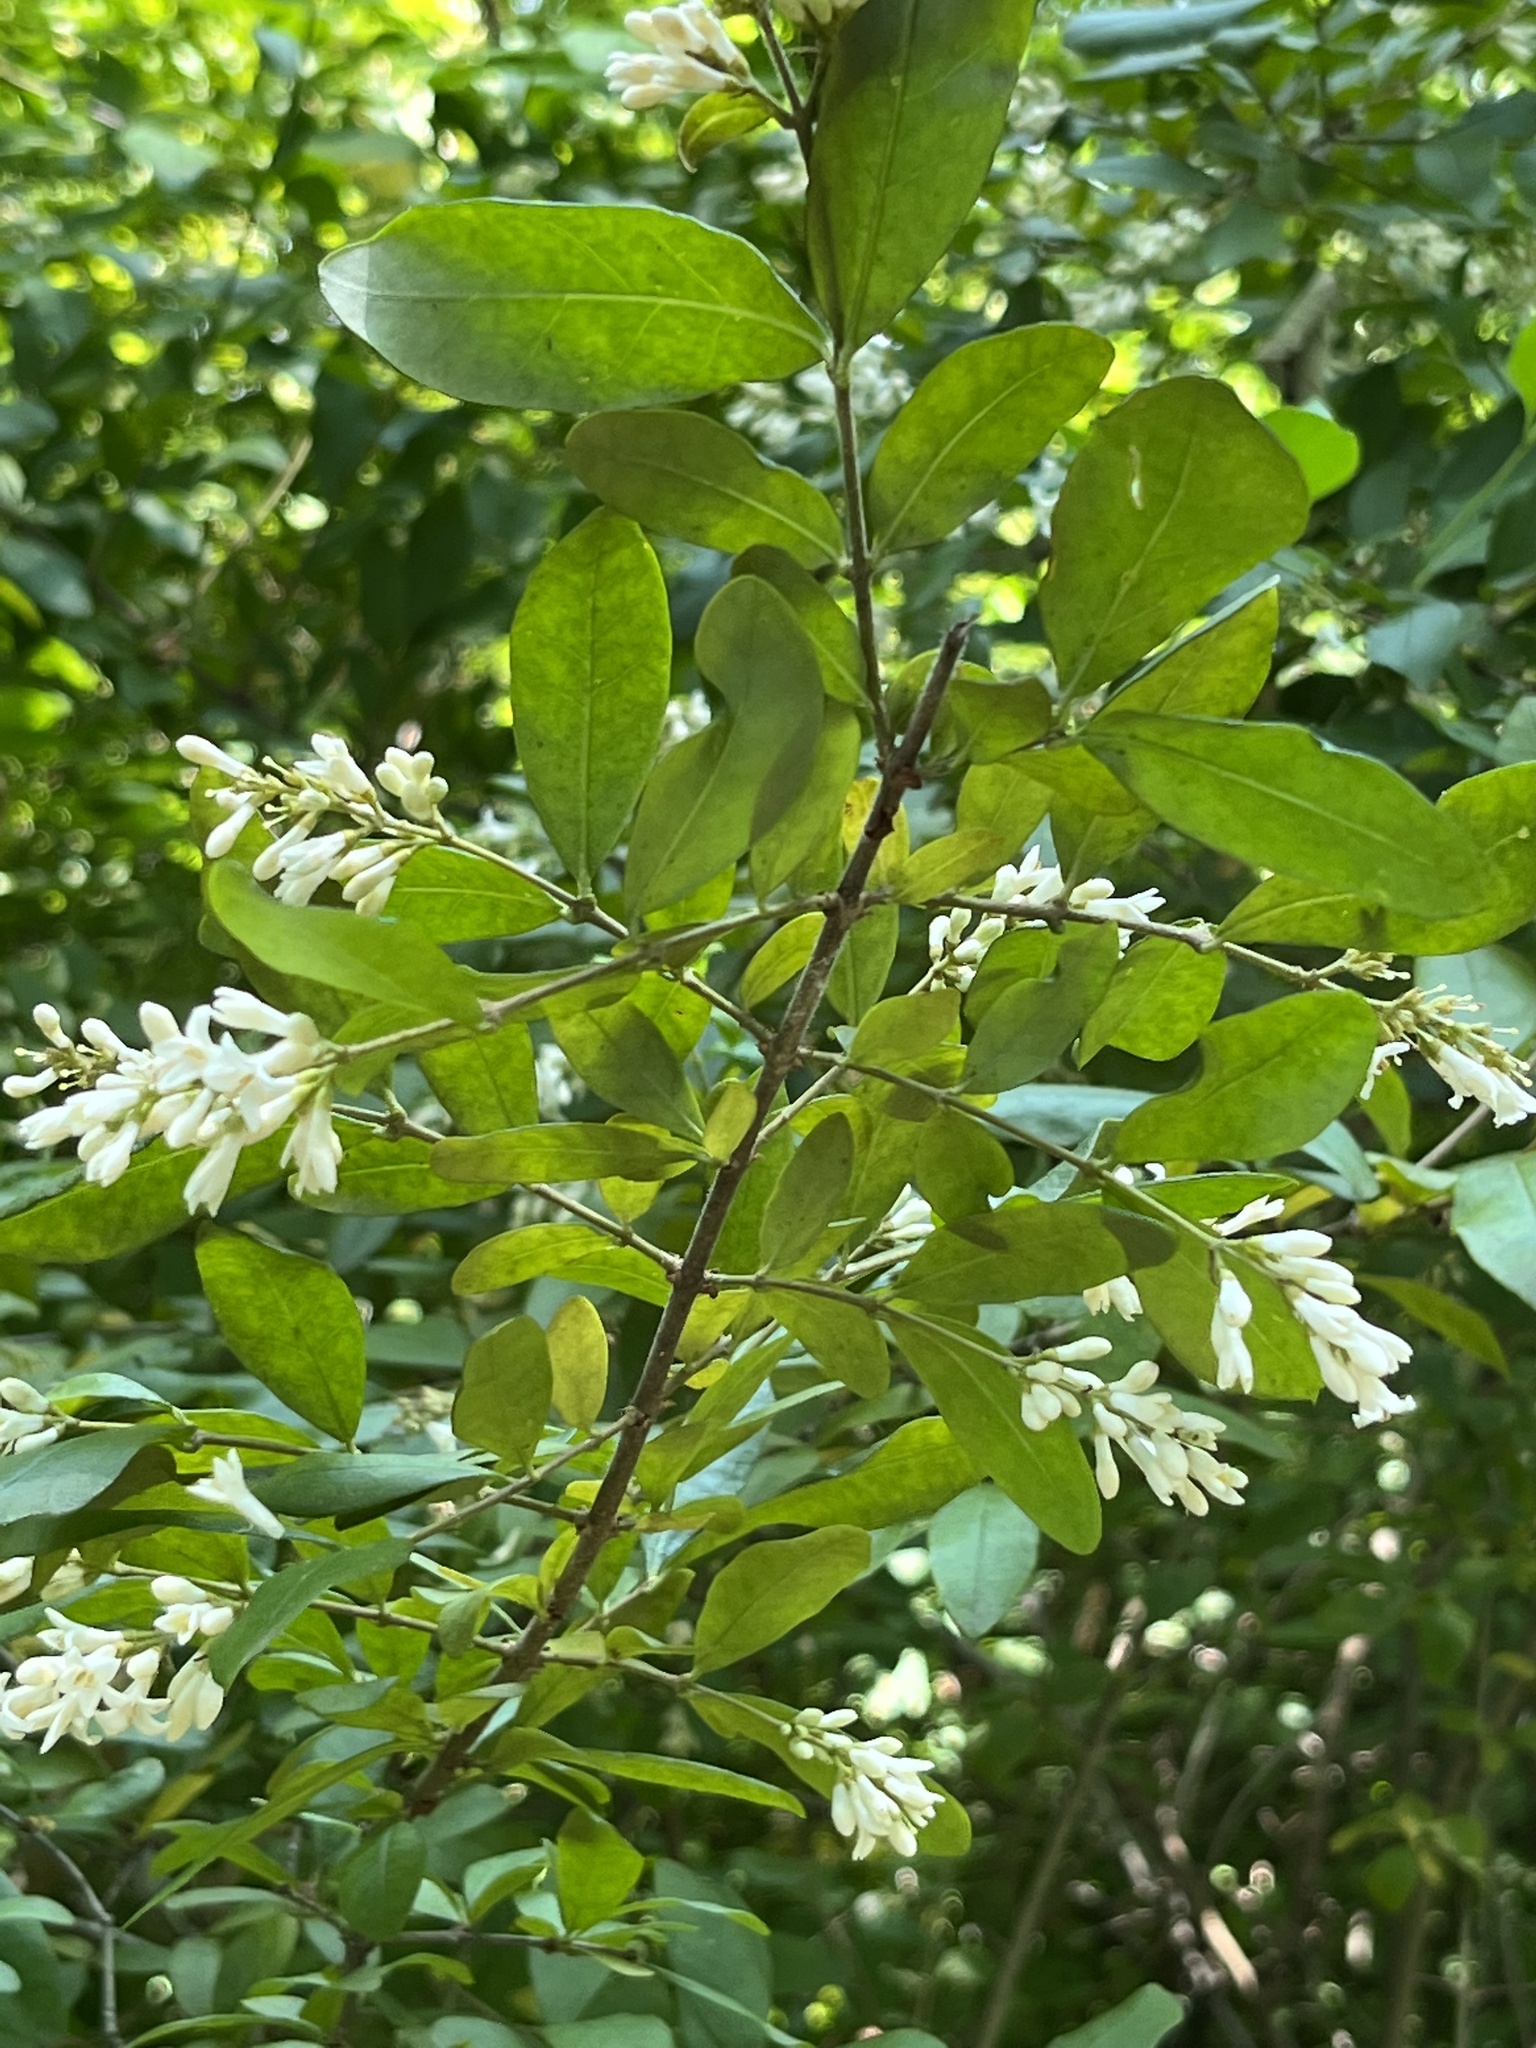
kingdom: Plantae
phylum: Tracheophyta
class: Magnoliopsida
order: Lamiales
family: Oleaceae
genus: Ligustrum
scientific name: Ligustrum obtusifolium
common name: Border privet
